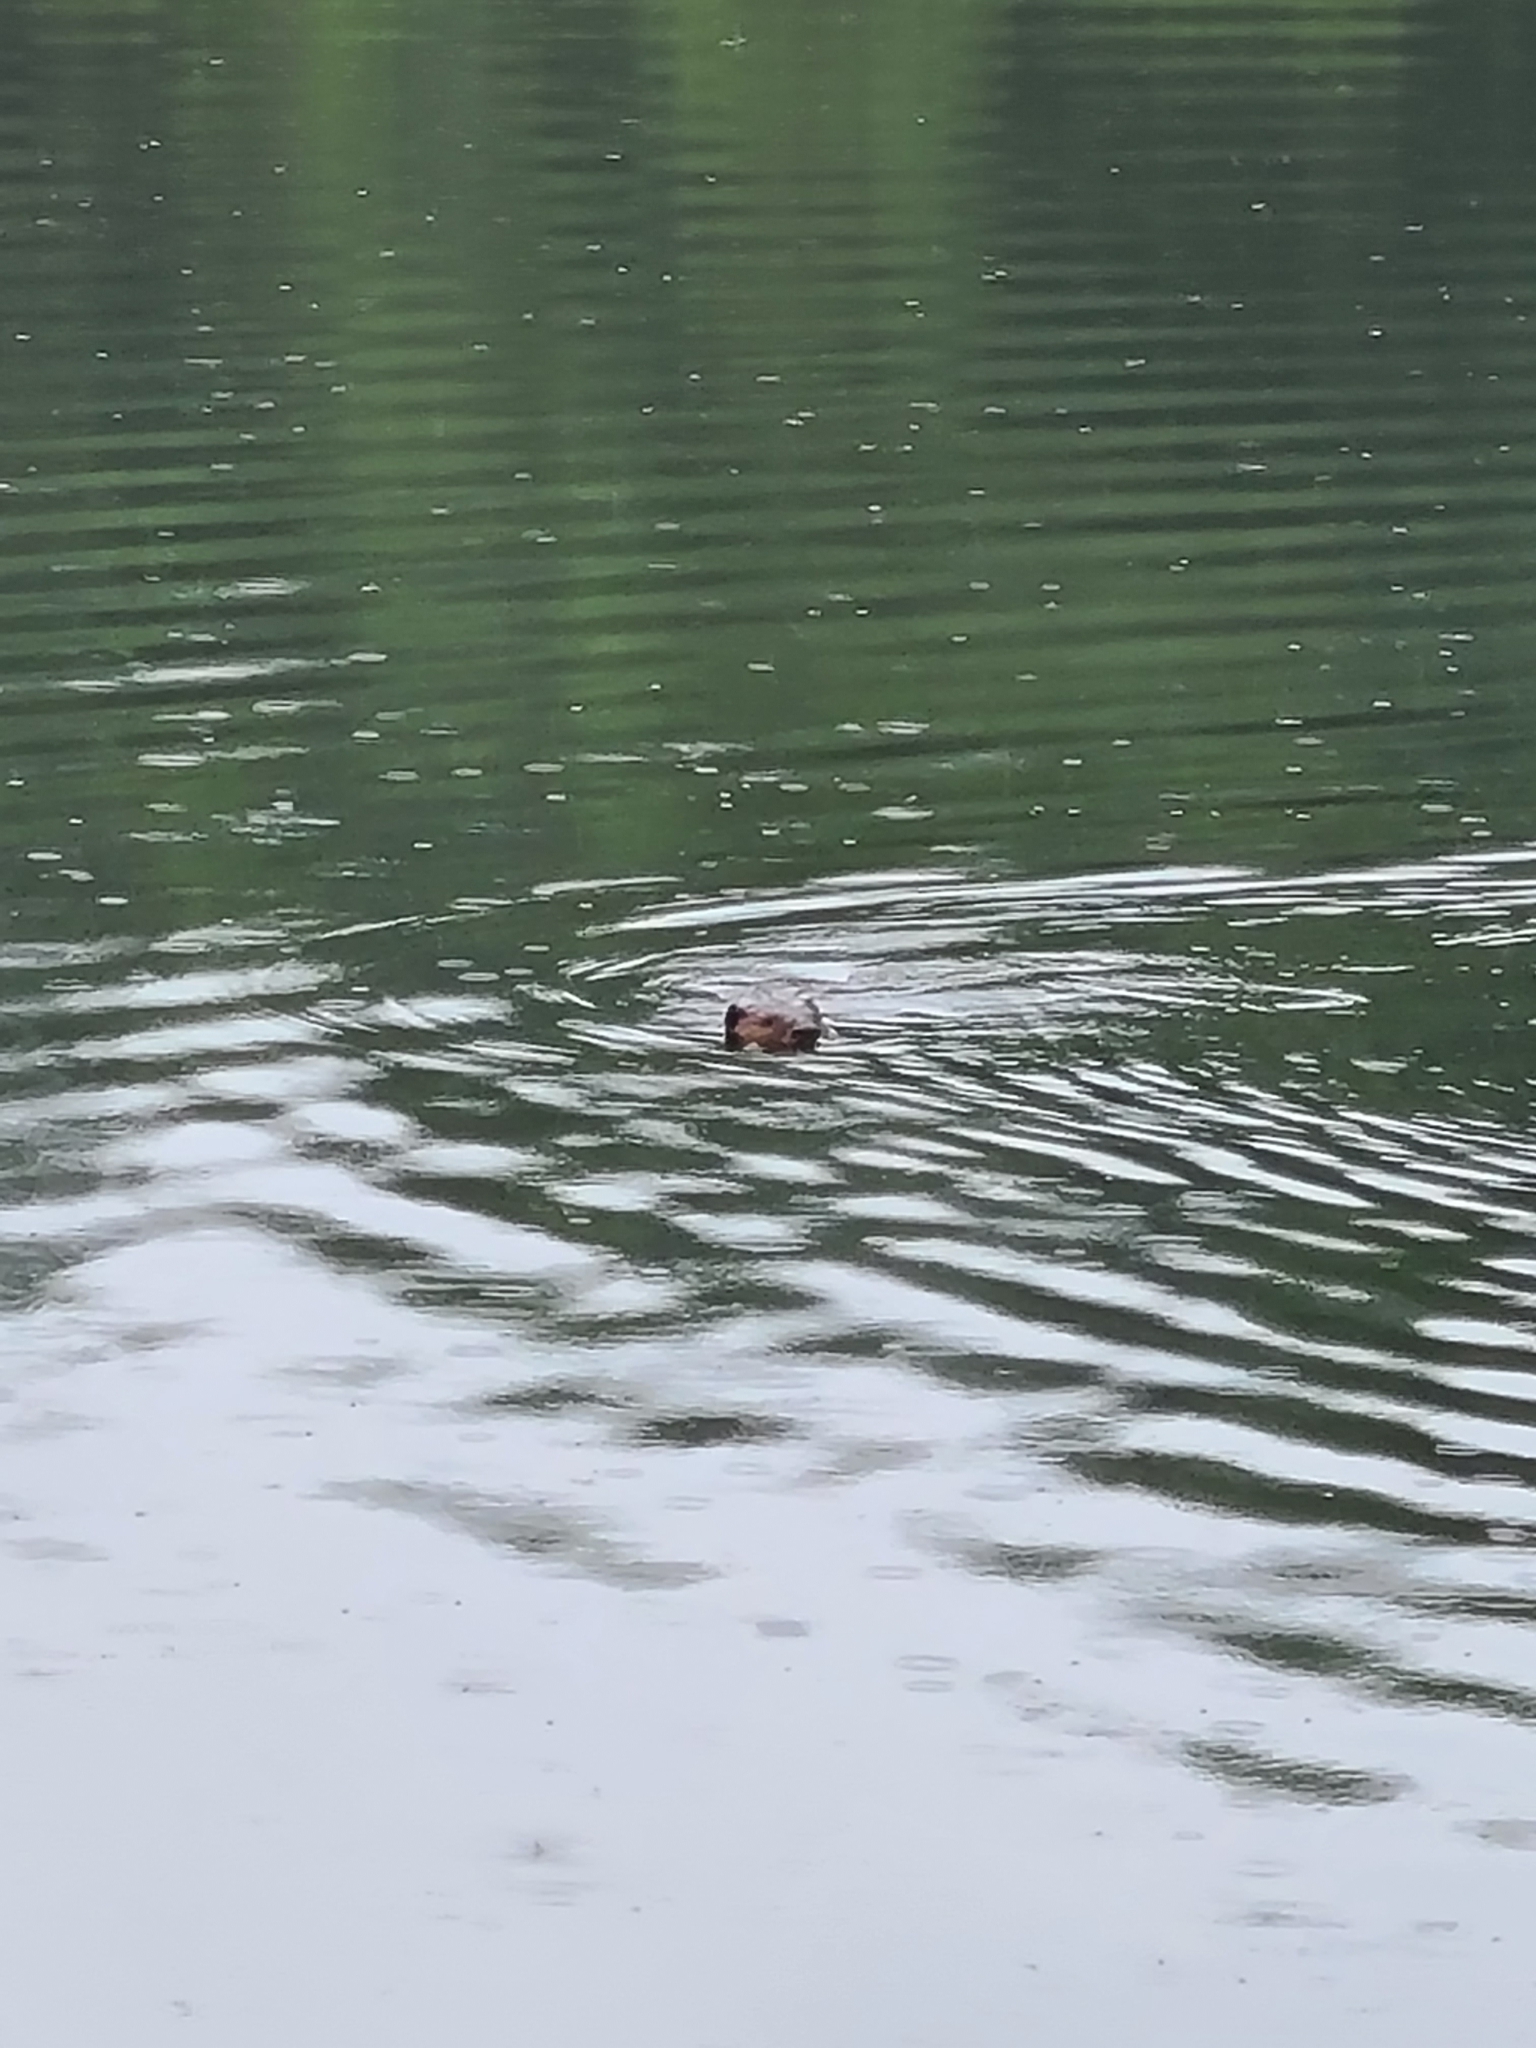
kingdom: Animalia
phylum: Chordata
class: Mammalia
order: Rodentia
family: Castoridae
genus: Castor
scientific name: Castor canadensis
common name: American beaver
